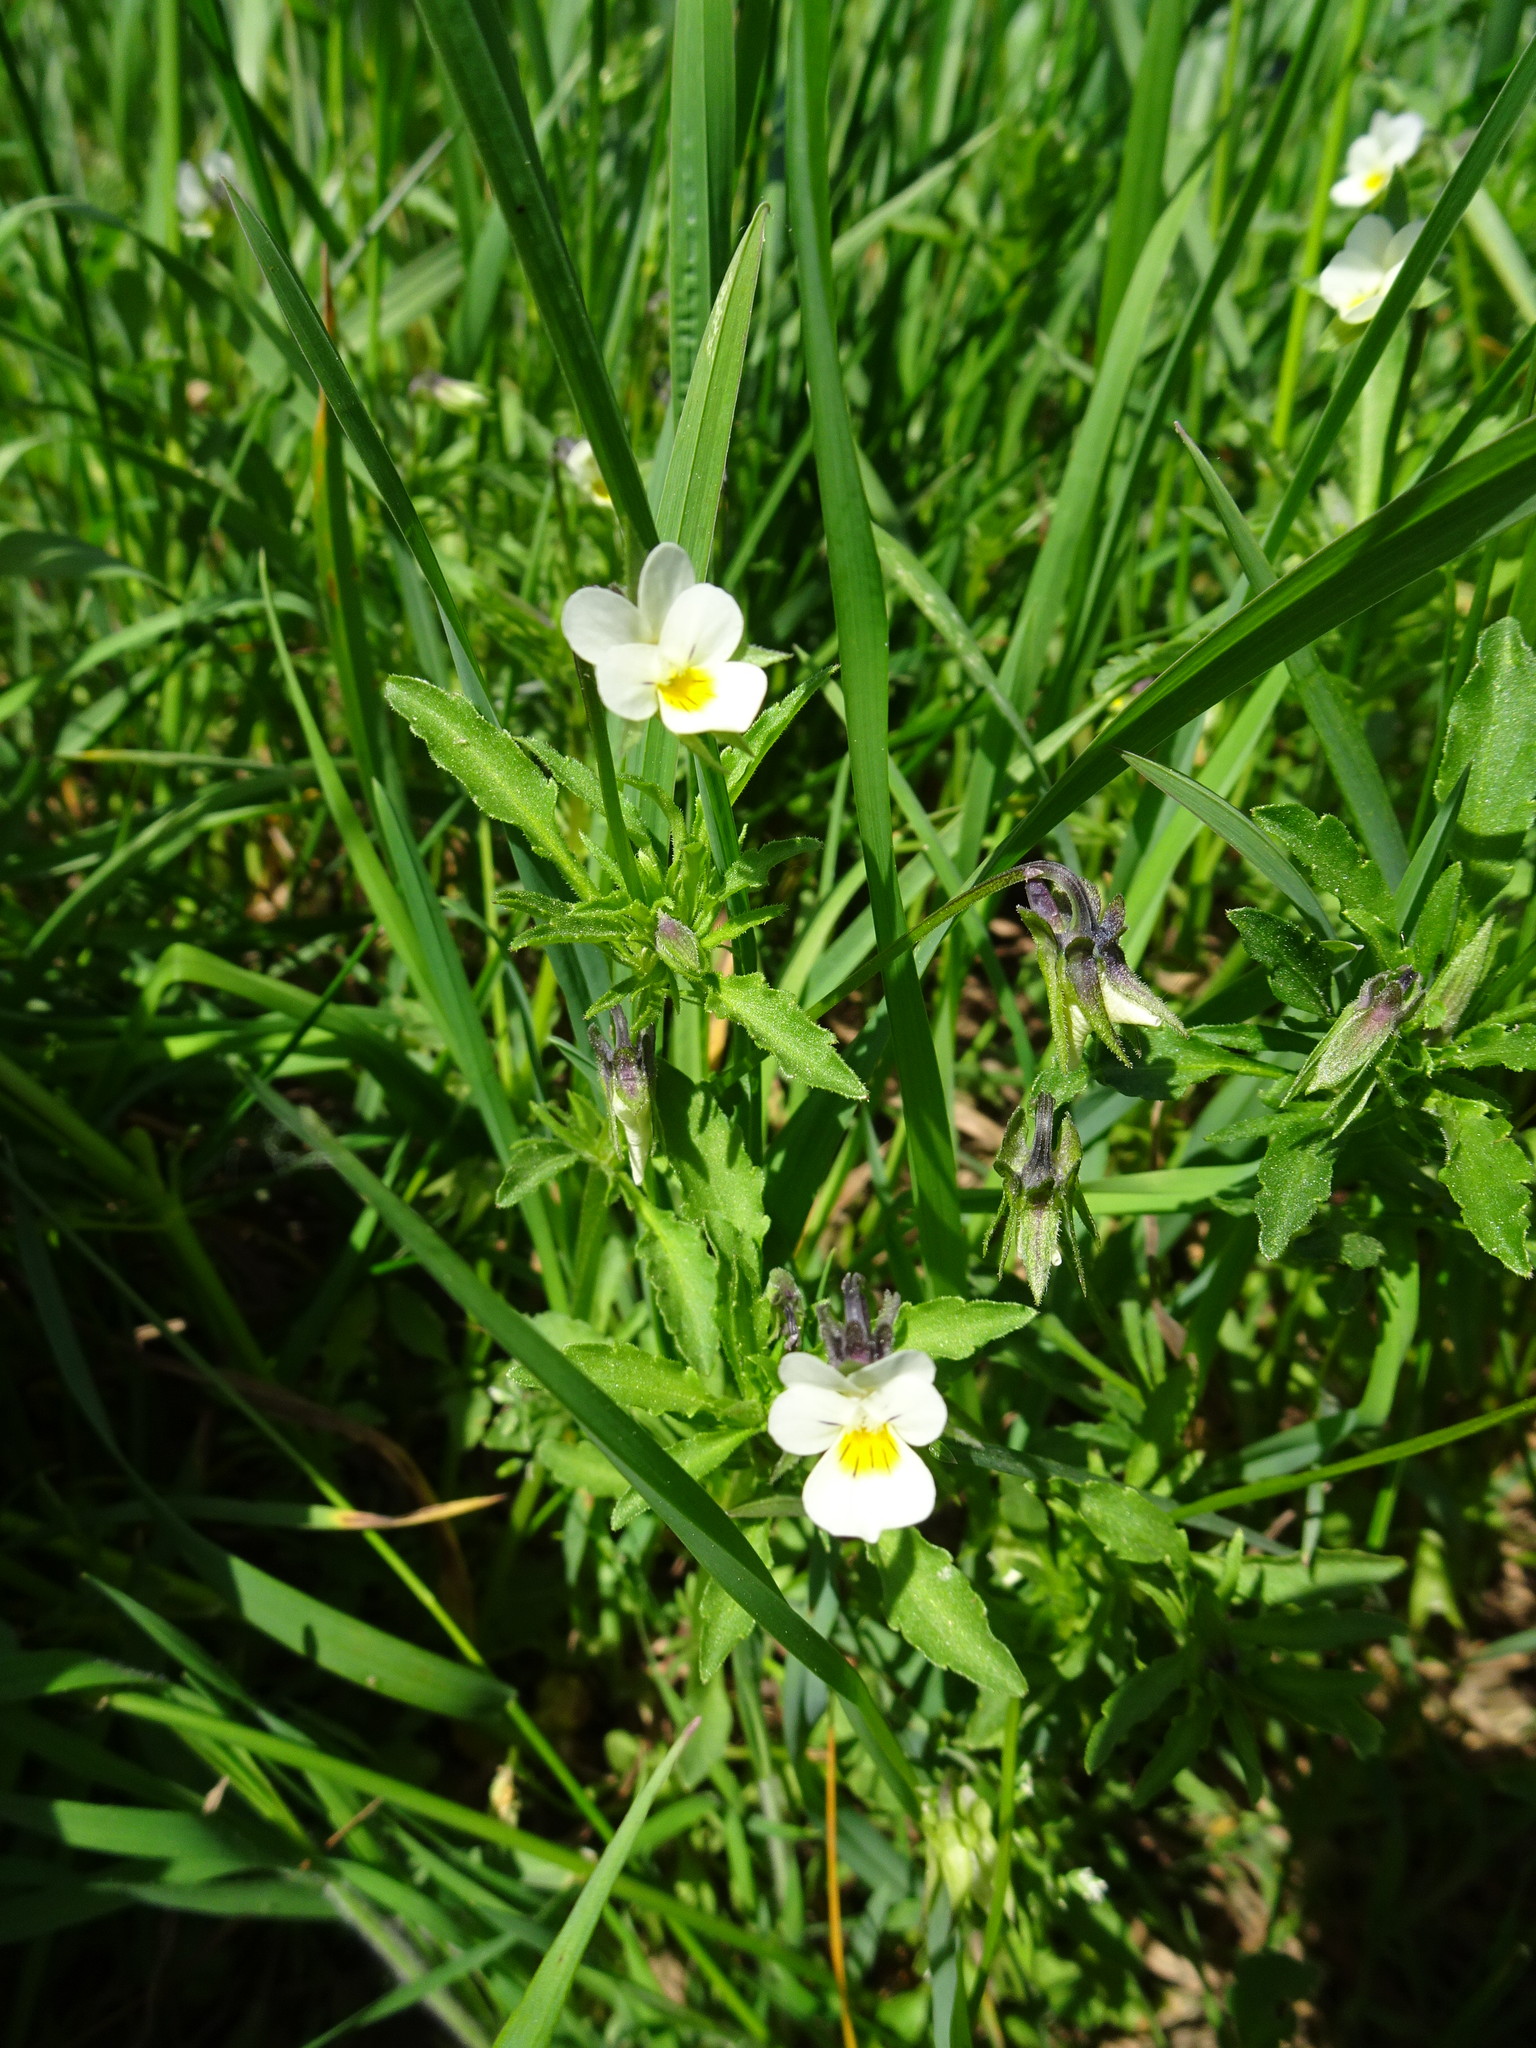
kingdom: Plantae
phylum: Tracheophyta
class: Magnoliopsida
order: Malpighiales
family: Violaceae
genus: Viola
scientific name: Viola arvensis
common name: Field pansy
